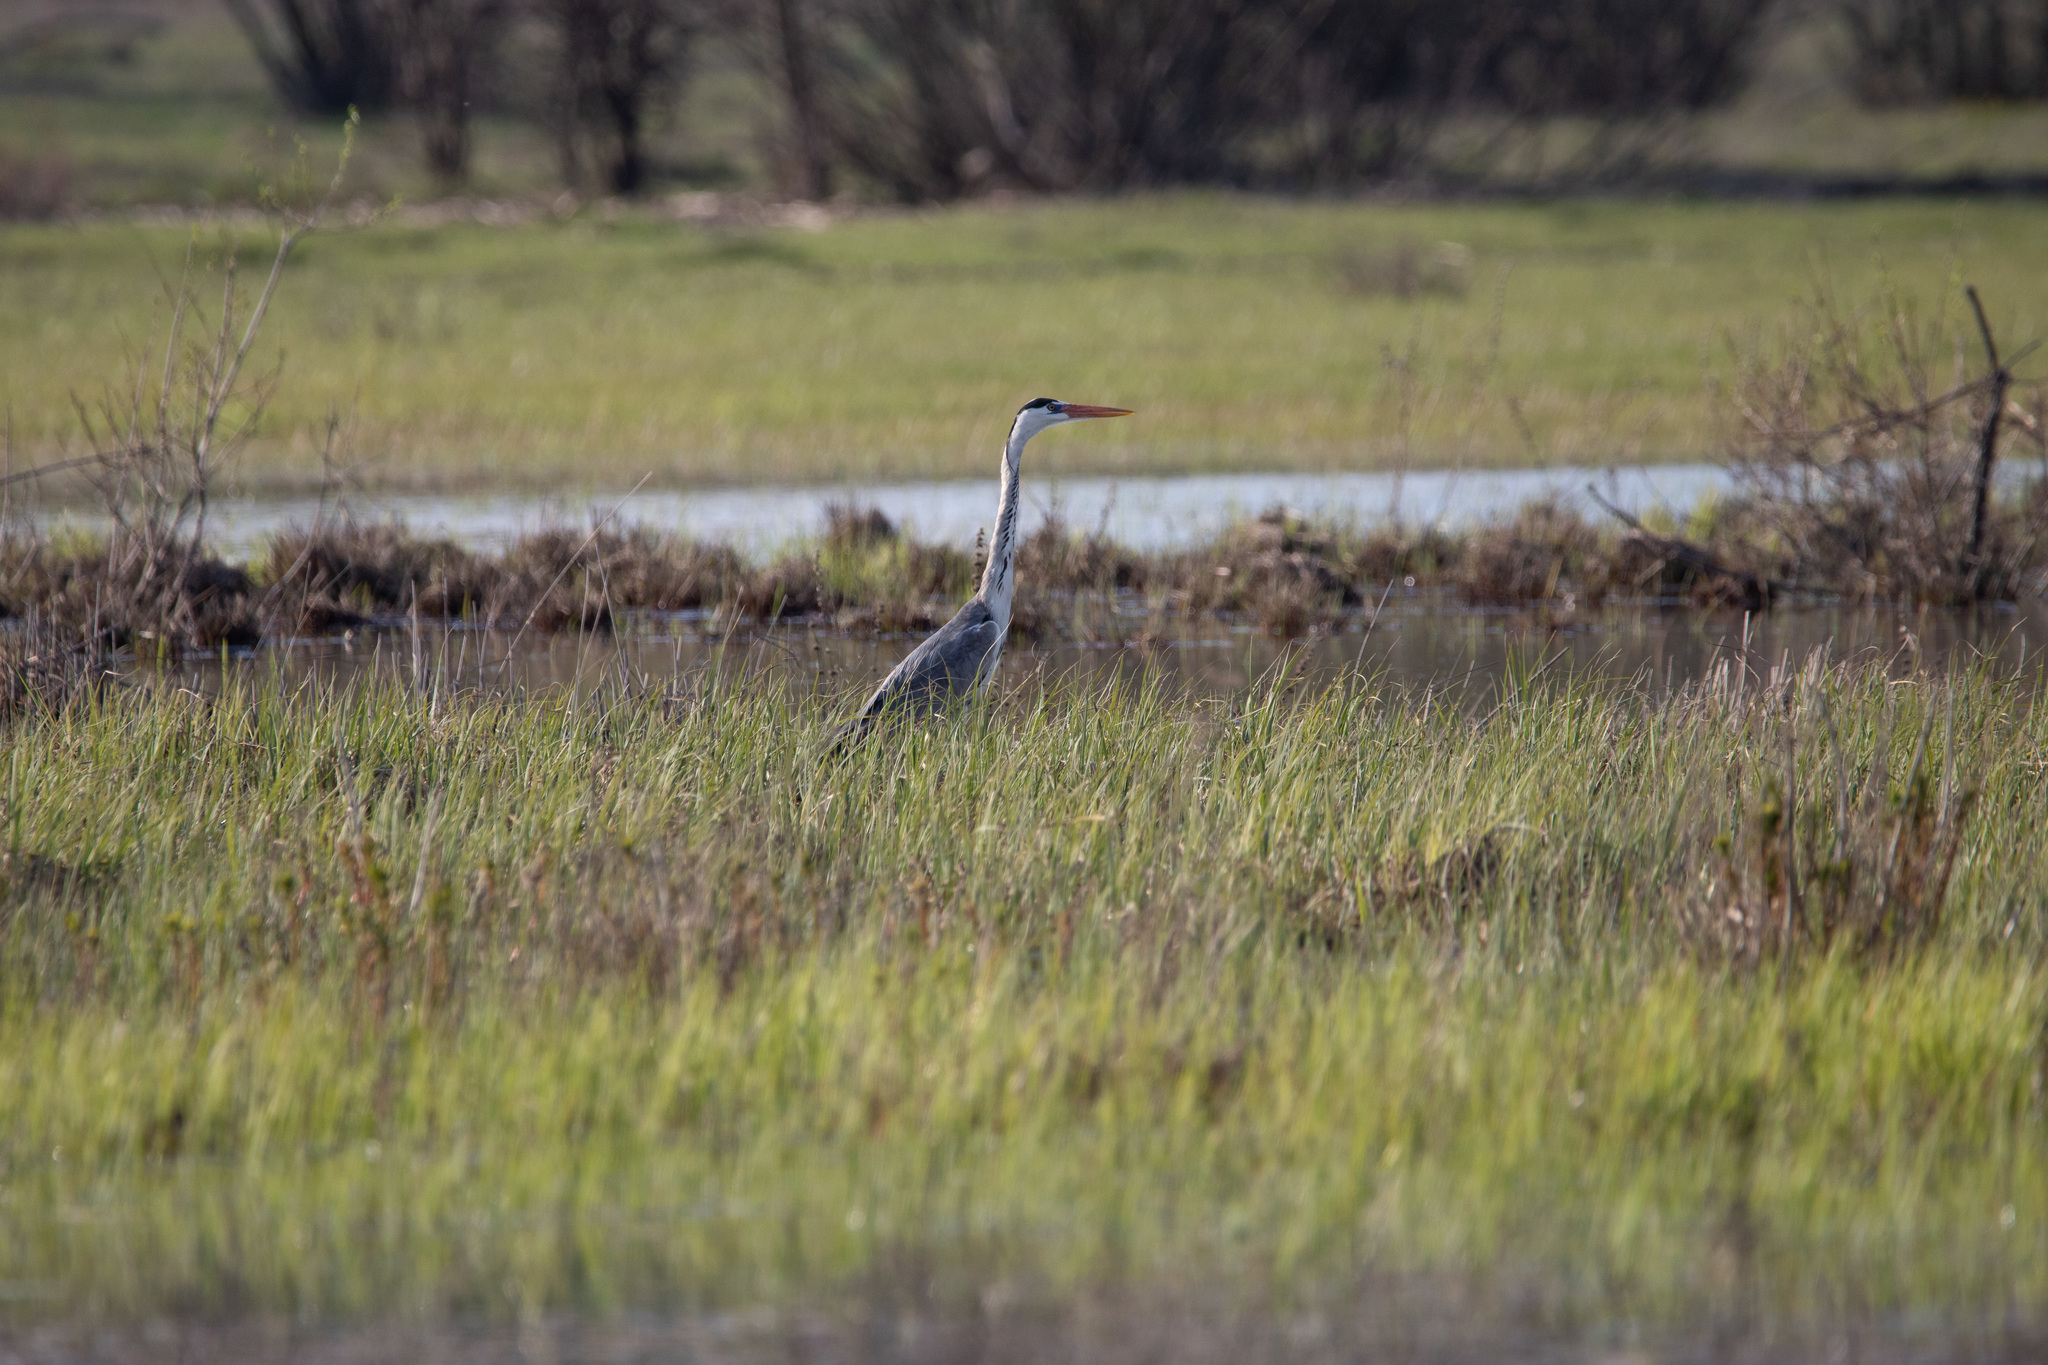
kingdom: Animalia
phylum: Chordata
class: Aves
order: Pelecaniformes
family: Ardeidae
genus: Ardea
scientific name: Ardea cinerea
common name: Grey heron
